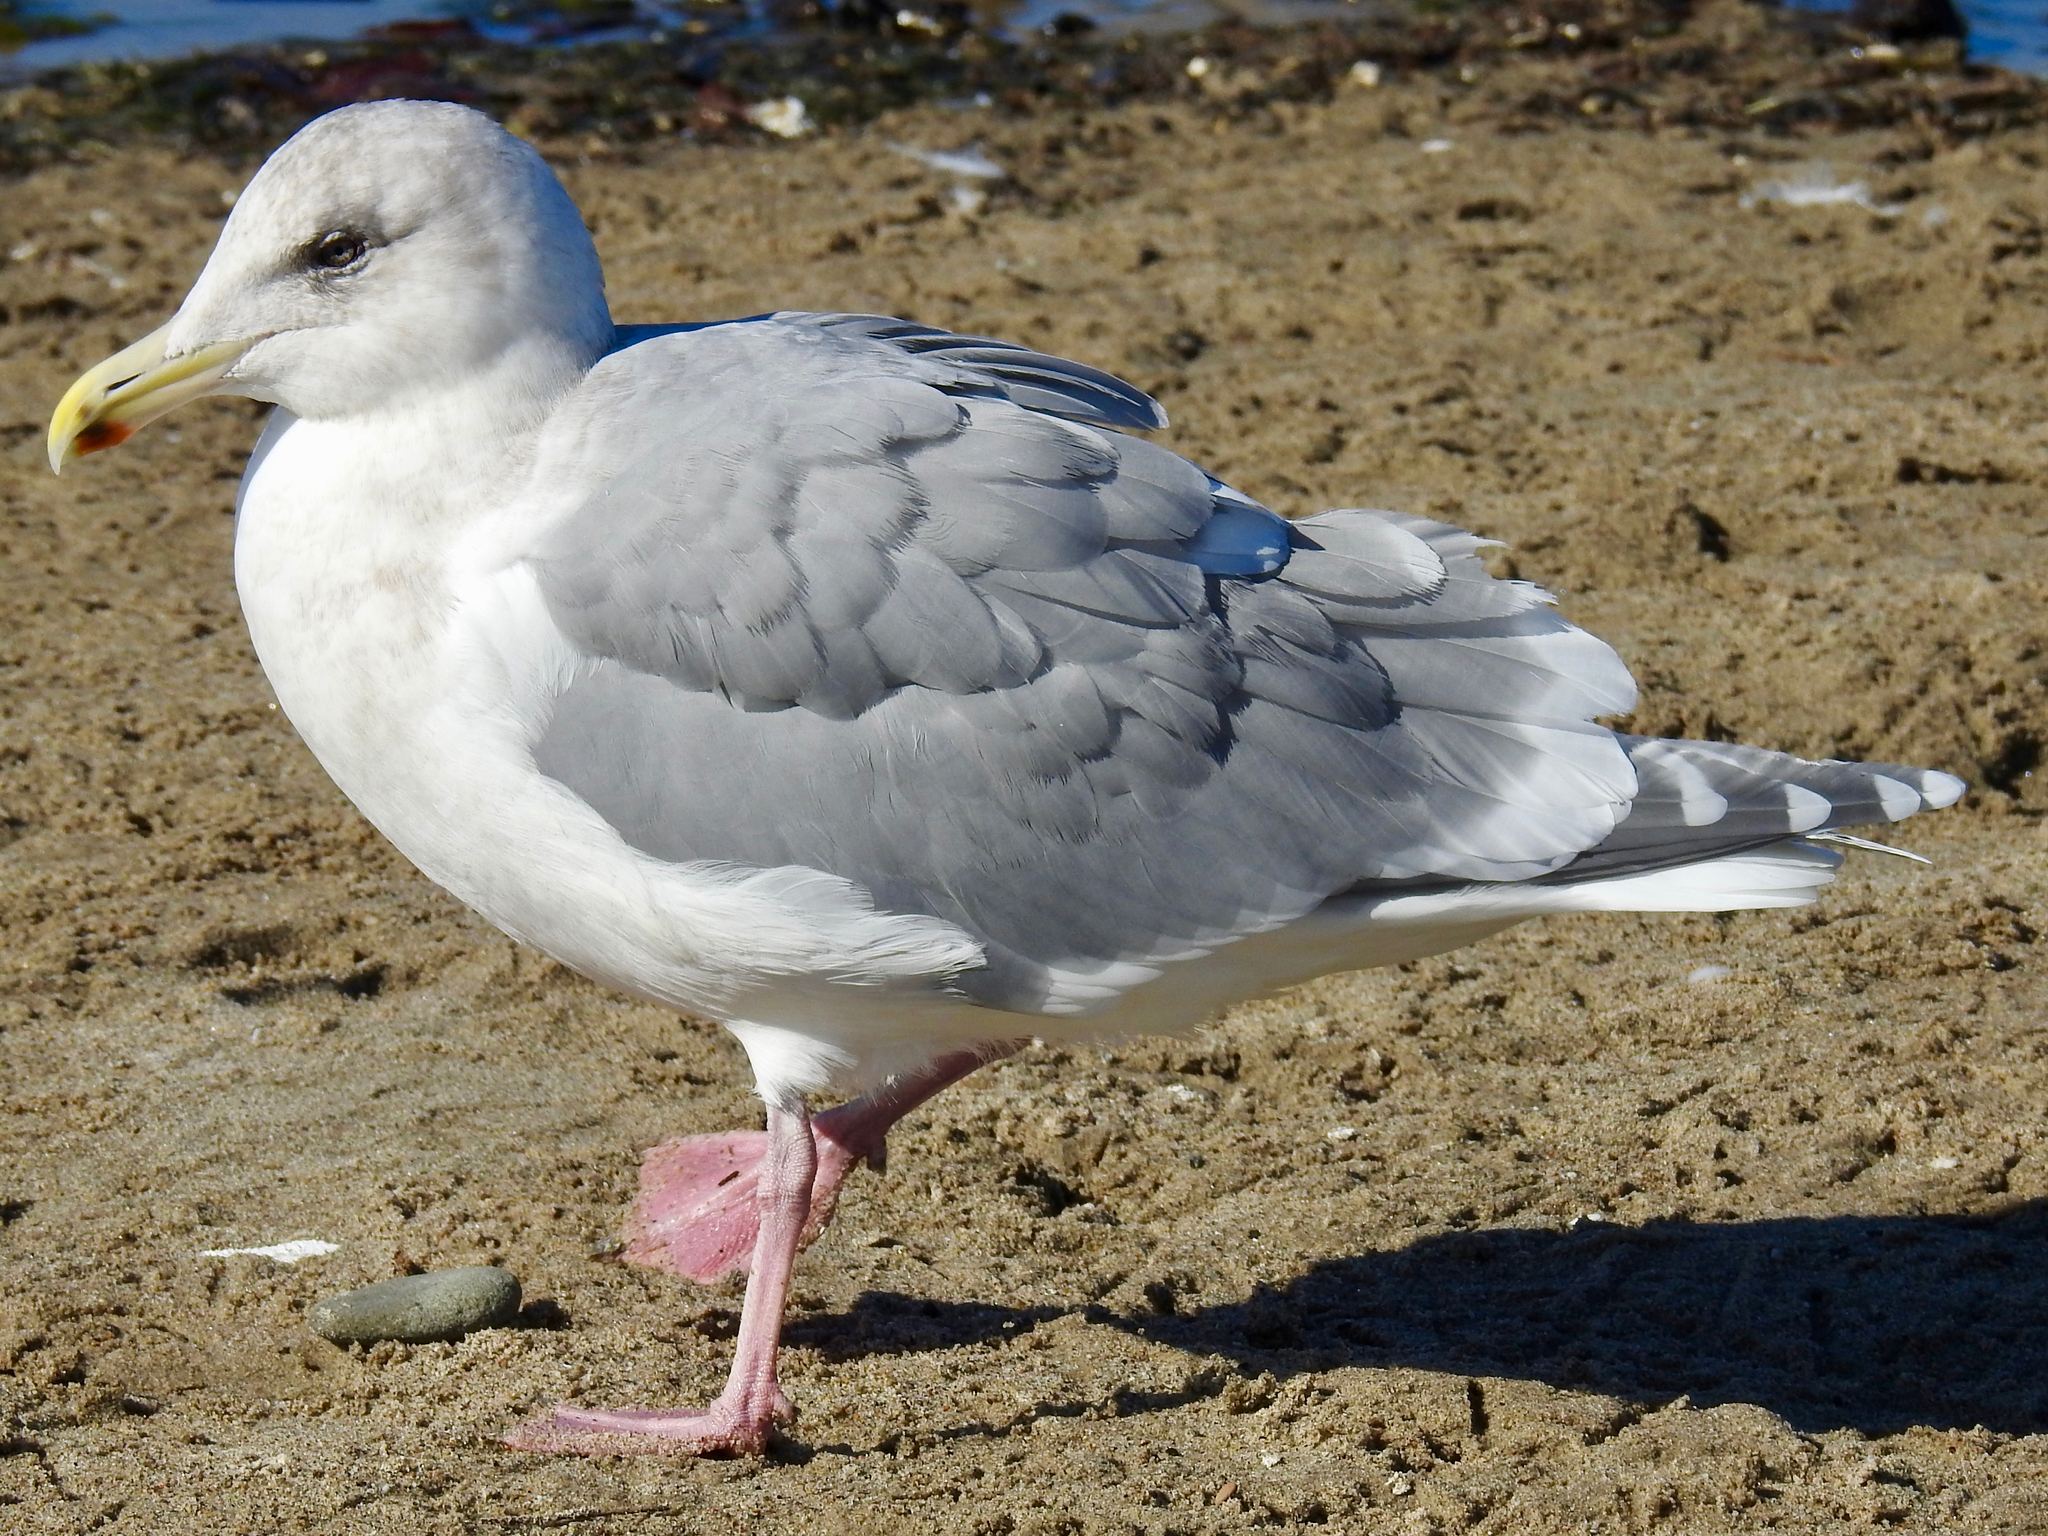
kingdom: Animalia
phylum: Chordata
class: Aves
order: Charadriiformes
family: Laridae
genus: Larus
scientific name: Larus glaucescens
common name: Glaucous-winged gull
